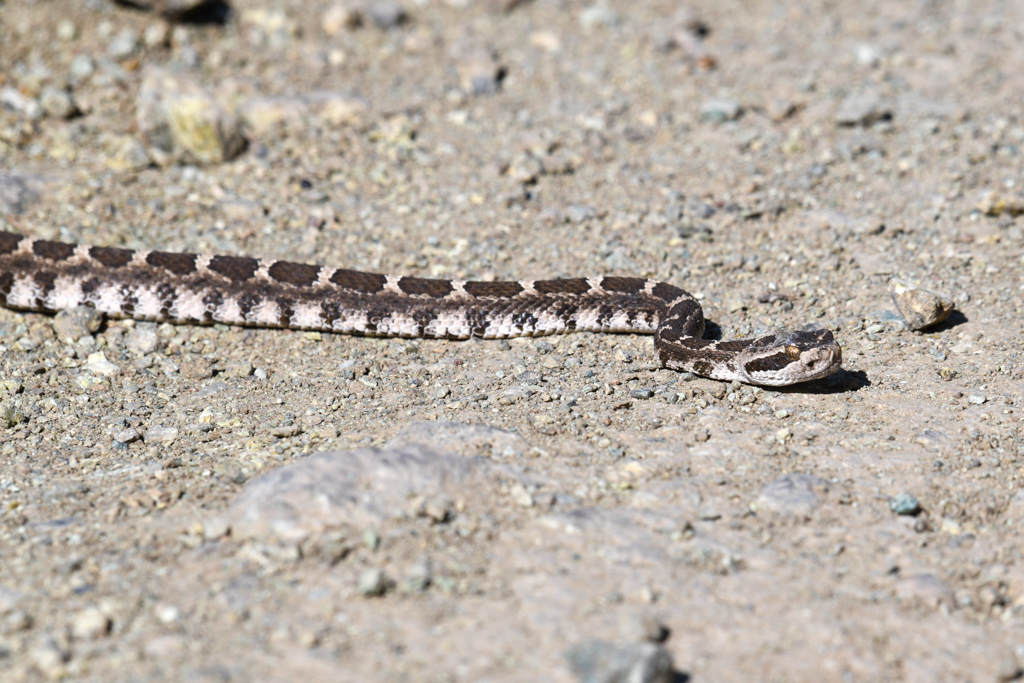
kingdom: Animalia
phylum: Chordata
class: Squamata
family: Viperidae
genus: Crotalus
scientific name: Crotalus oreganus
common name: Abyssus
